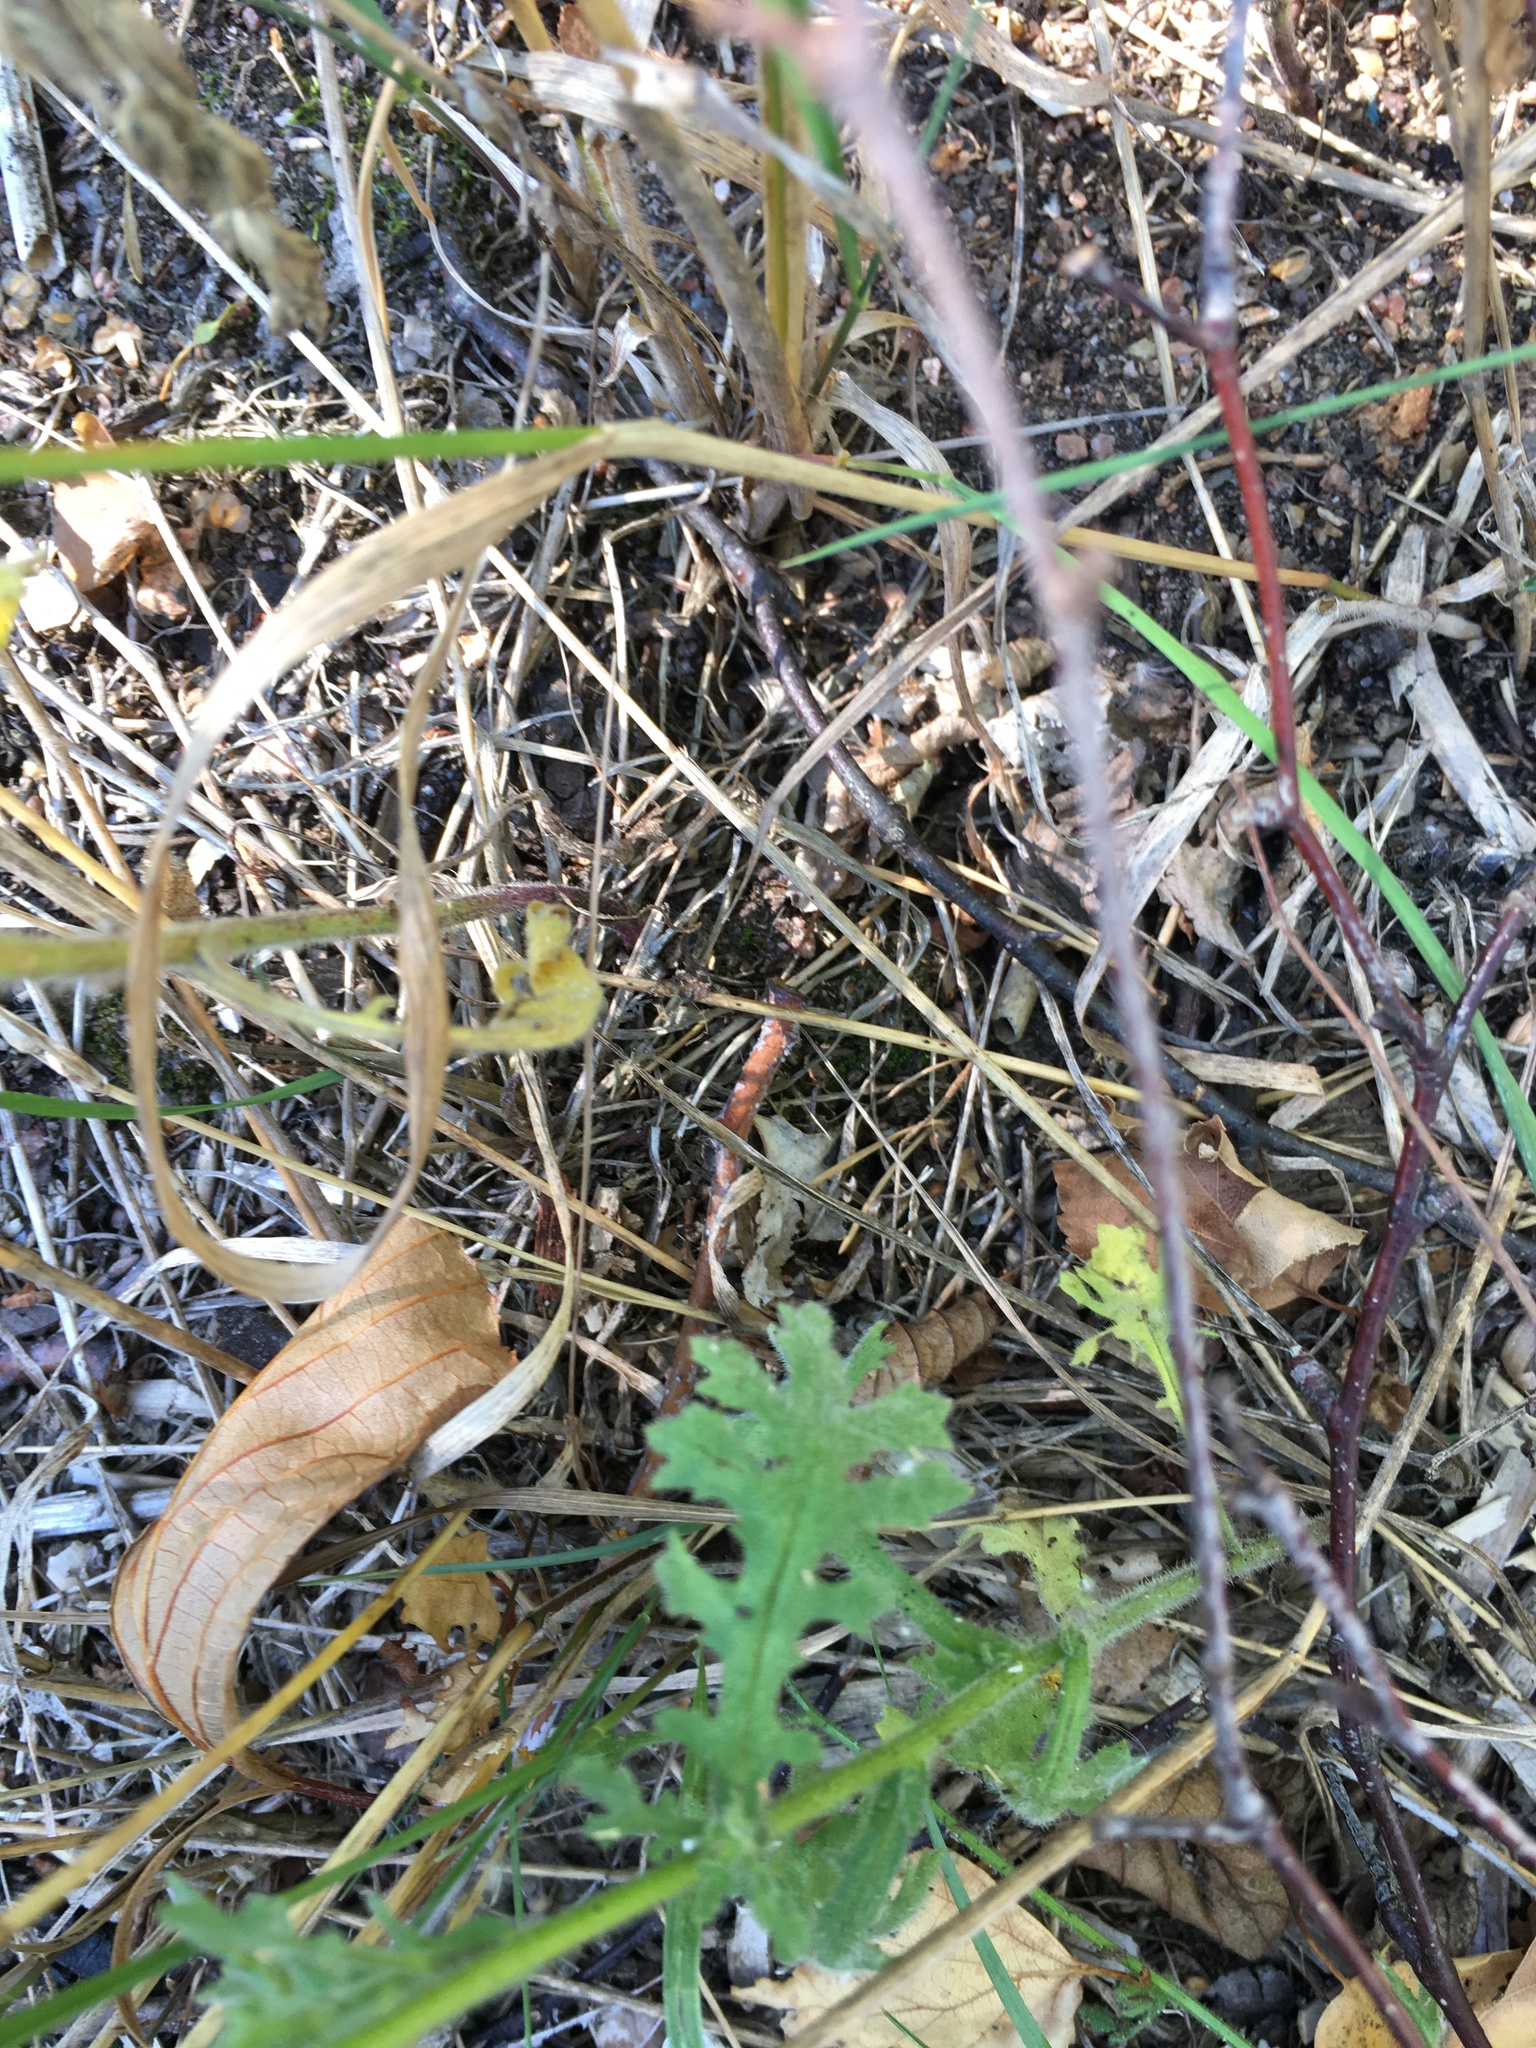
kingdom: Plantae
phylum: Tracheophyta
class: Magnoliopsida
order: Asterales
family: Asteraceae
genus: Sonchus
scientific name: Sonchus oleraceus
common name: Common sowthistle
